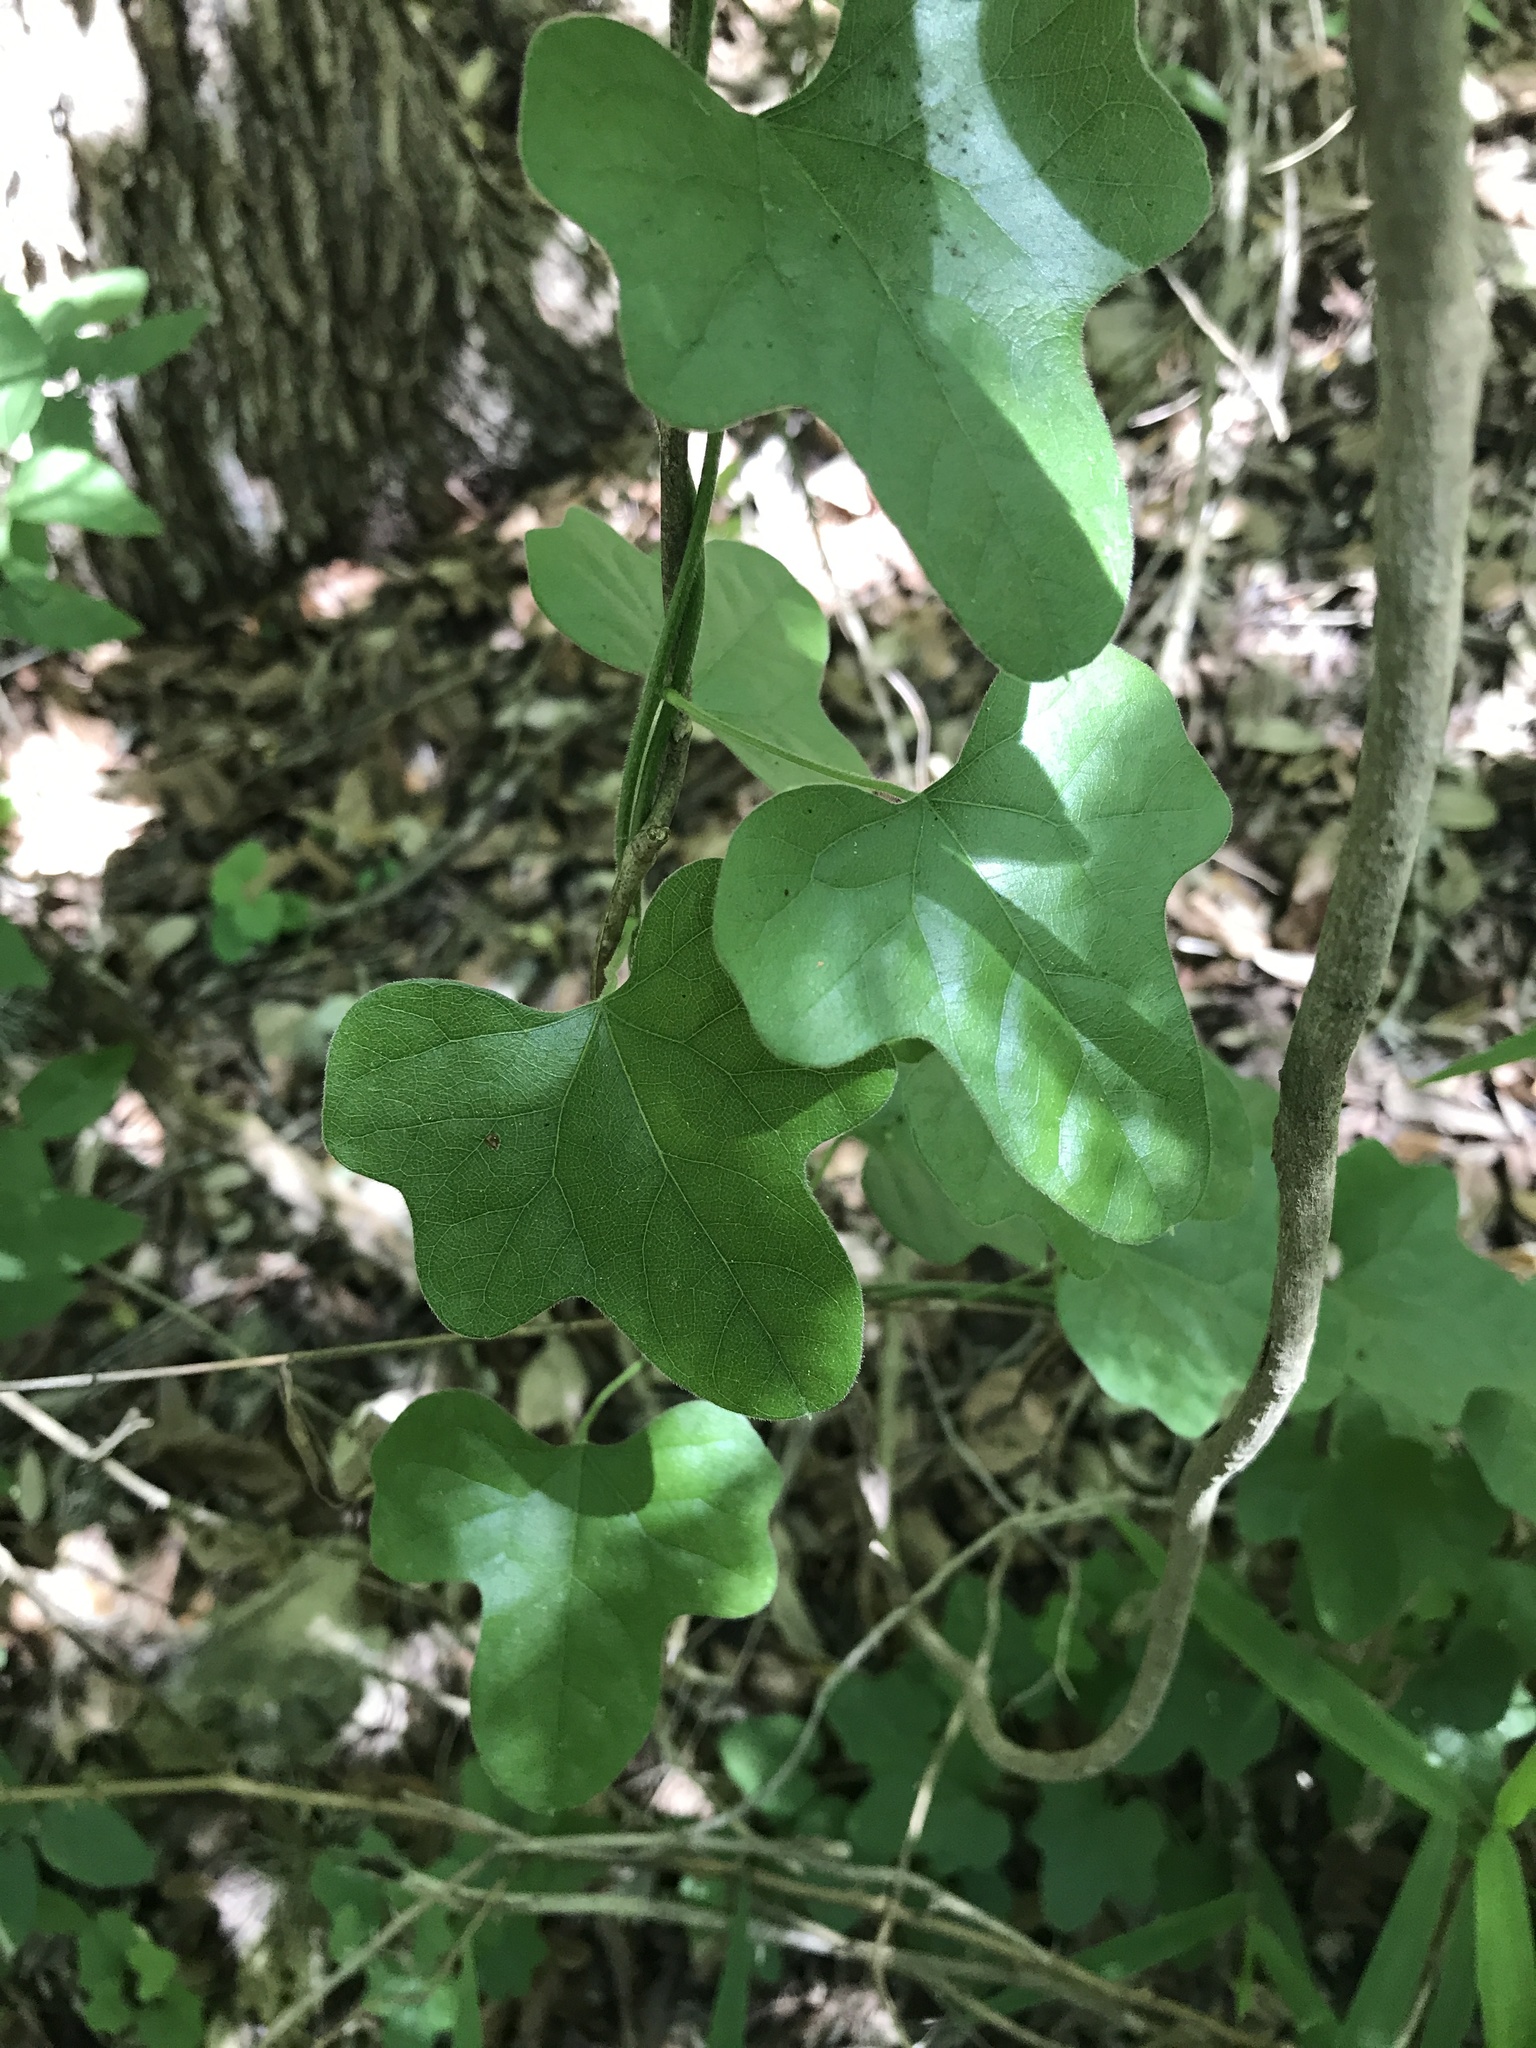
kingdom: Plantae
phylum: Tracheophyta
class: Magnoliopsida
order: Ranunculales
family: Menispermaceae
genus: Cocculus
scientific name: Cocculus carolinus
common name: Carolina moonseed
